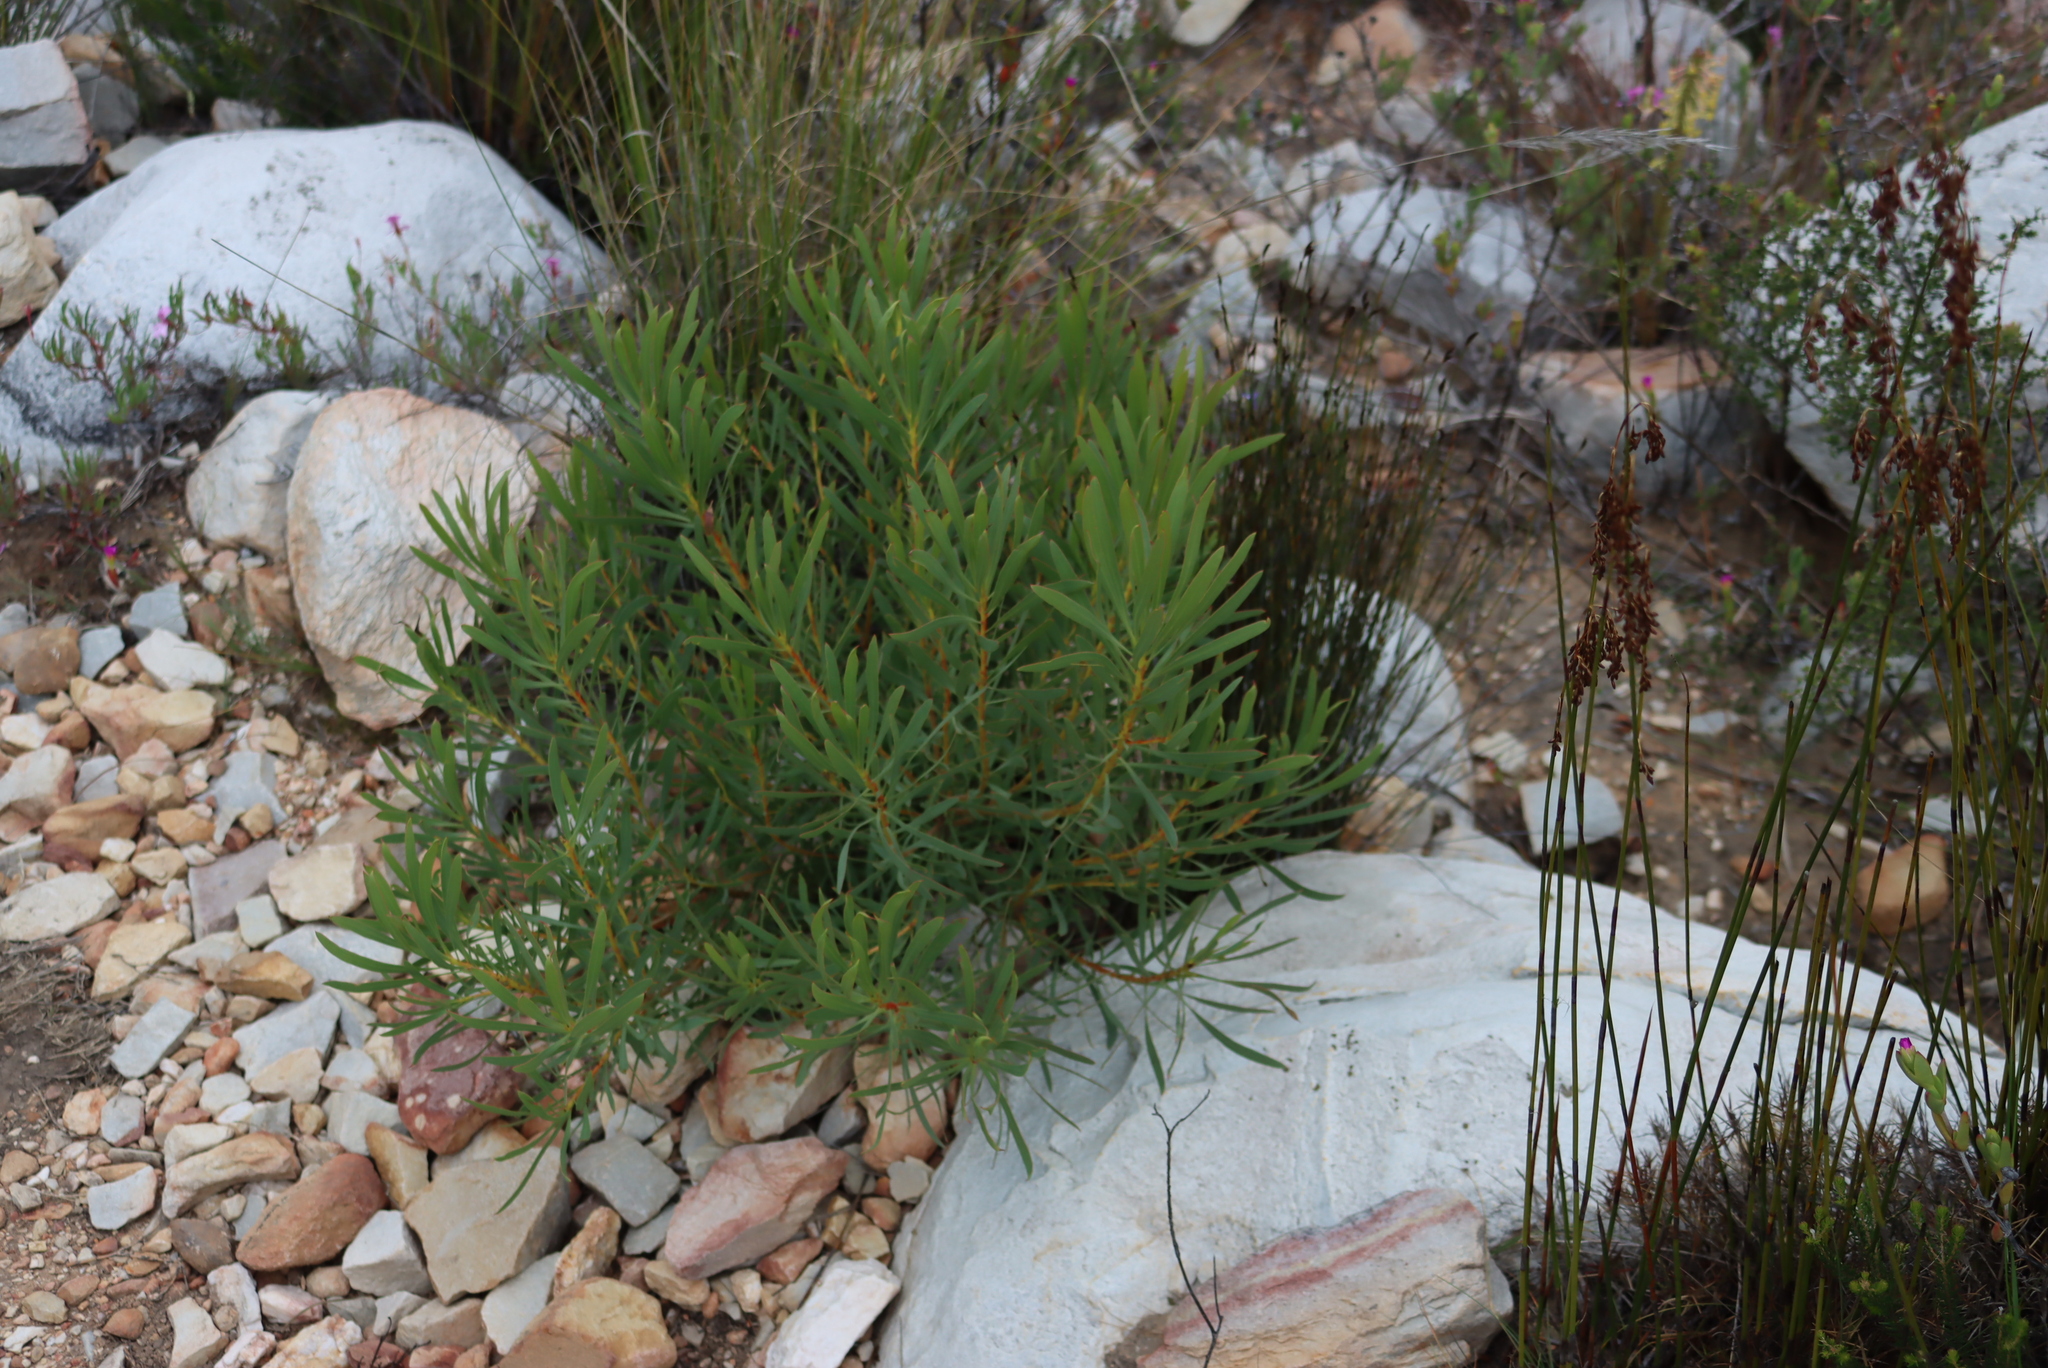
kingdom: Plantae
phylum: Tracheophyta
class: Magnoliopsida
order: Proteales
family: Proteaceae
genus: Protea
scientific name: Protea repens
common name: Sugarbush
